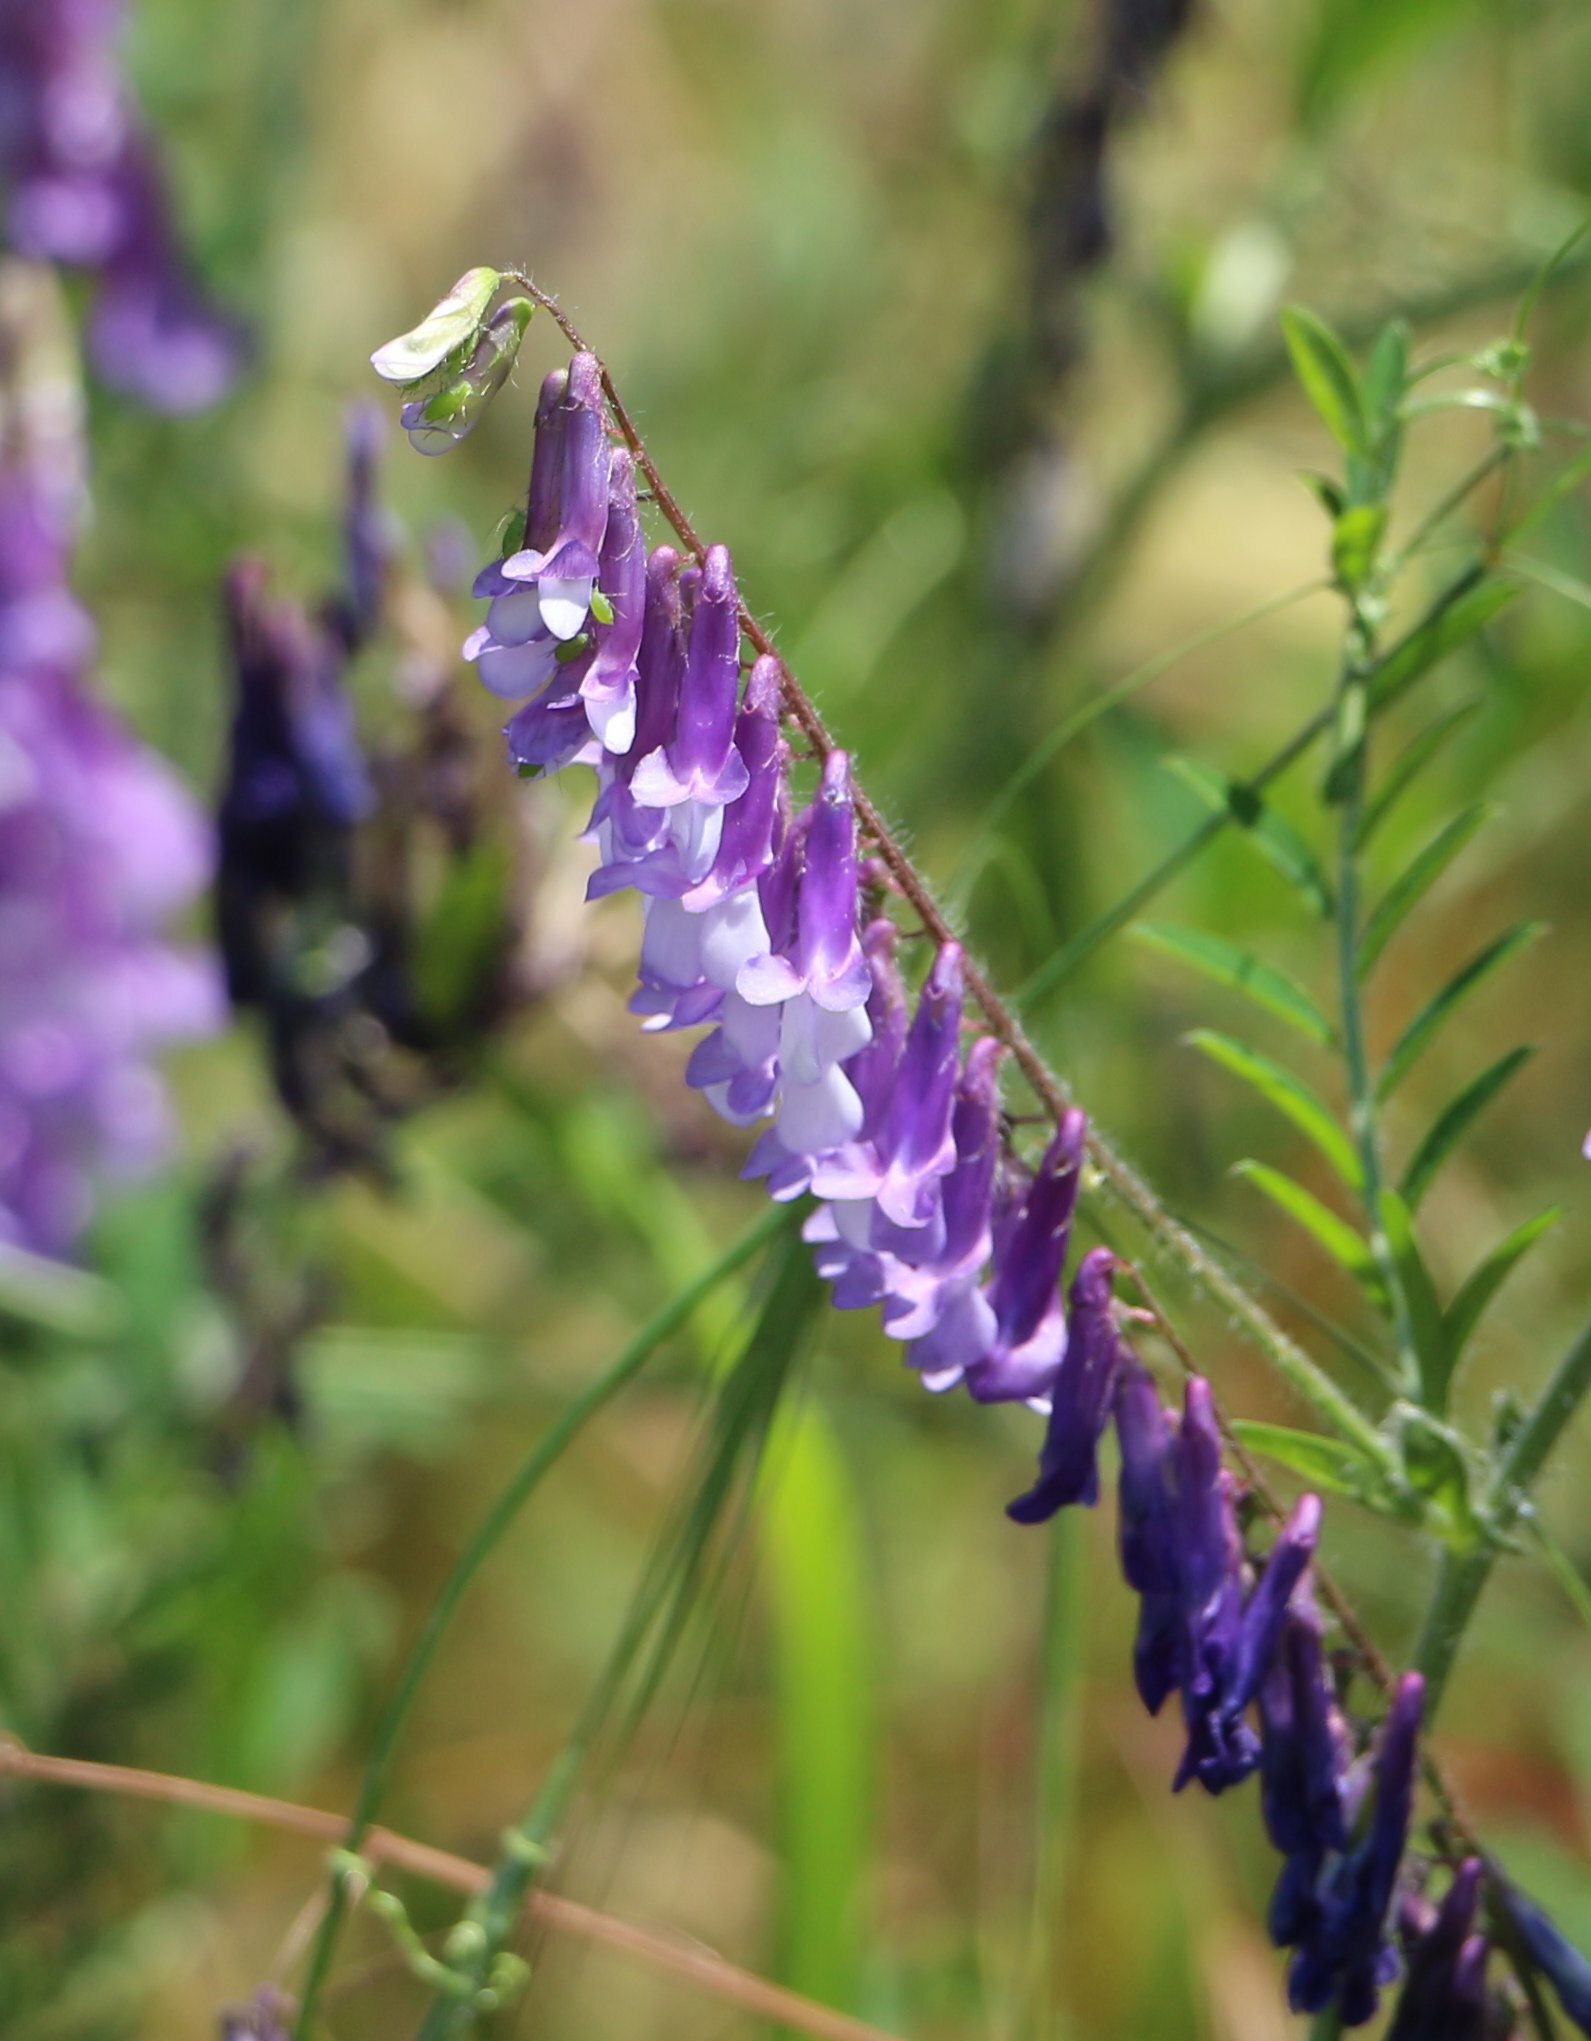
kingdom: Plantae
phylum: Tracheophyta
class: Magnoliopsida
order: Fabales
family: Fabaceae
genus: Vicia
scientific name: Vicia villosa
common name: Fodder vetch
